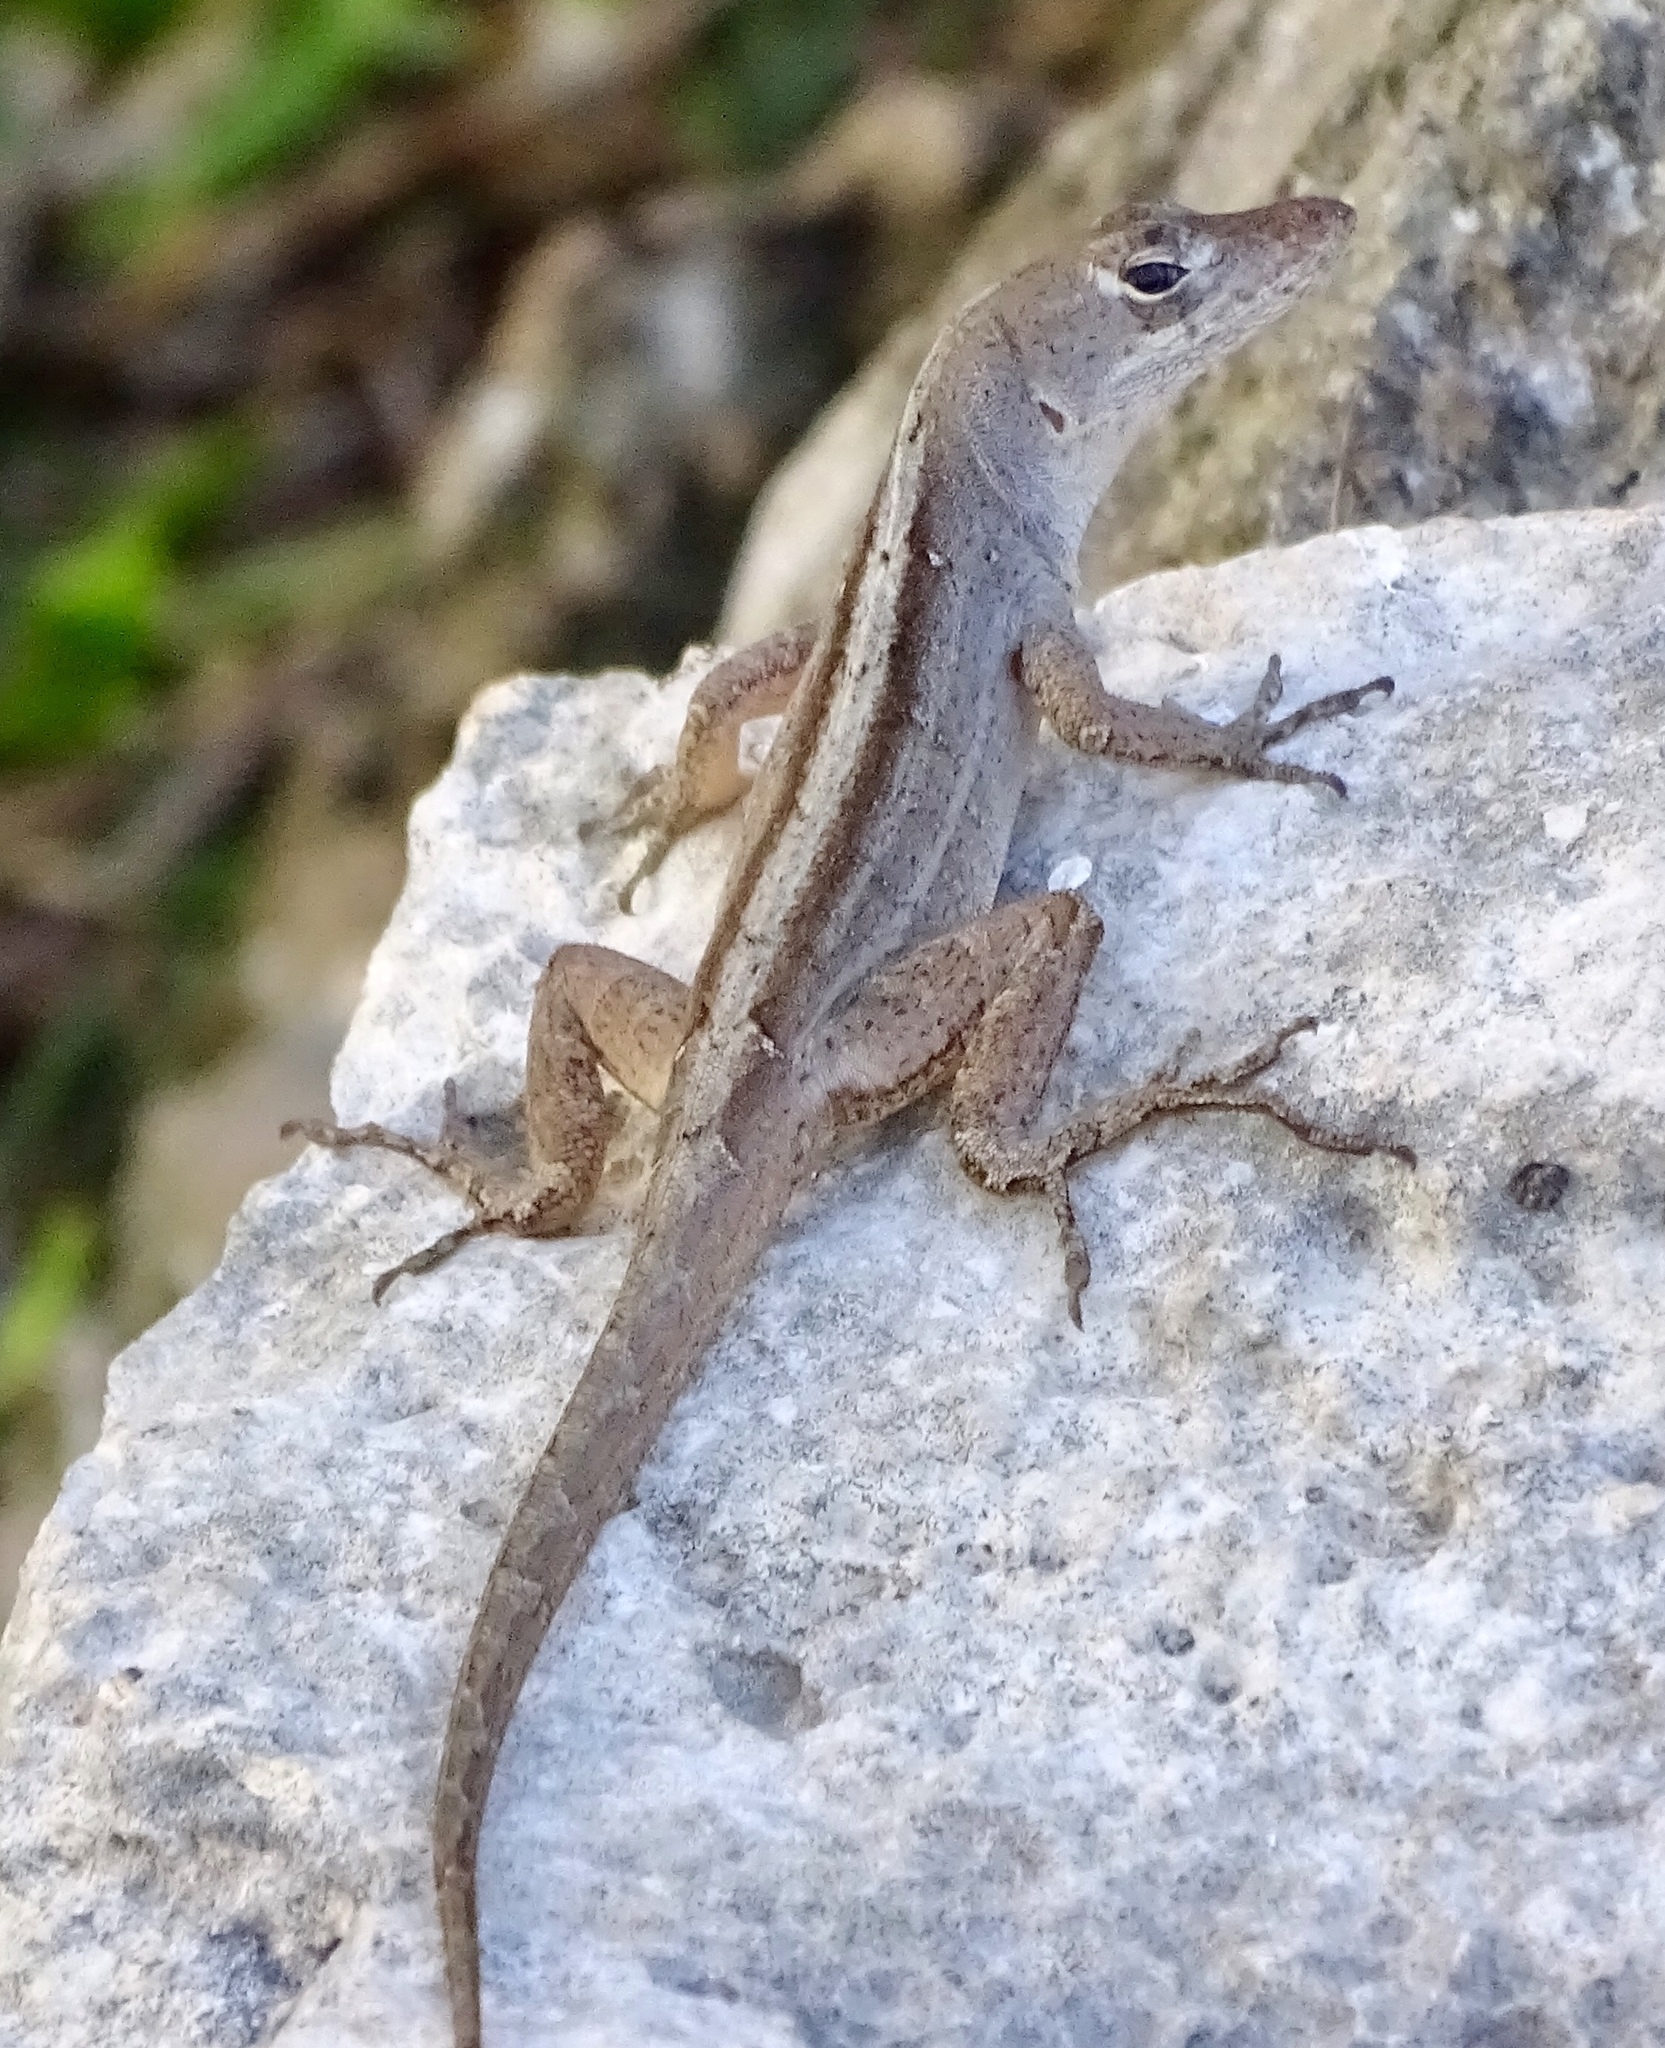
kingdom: Animalia
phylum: Chordata
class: Squamata
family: Dactyloidae
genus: Anolis
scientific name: Anolis sagrei
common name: Brown anole
